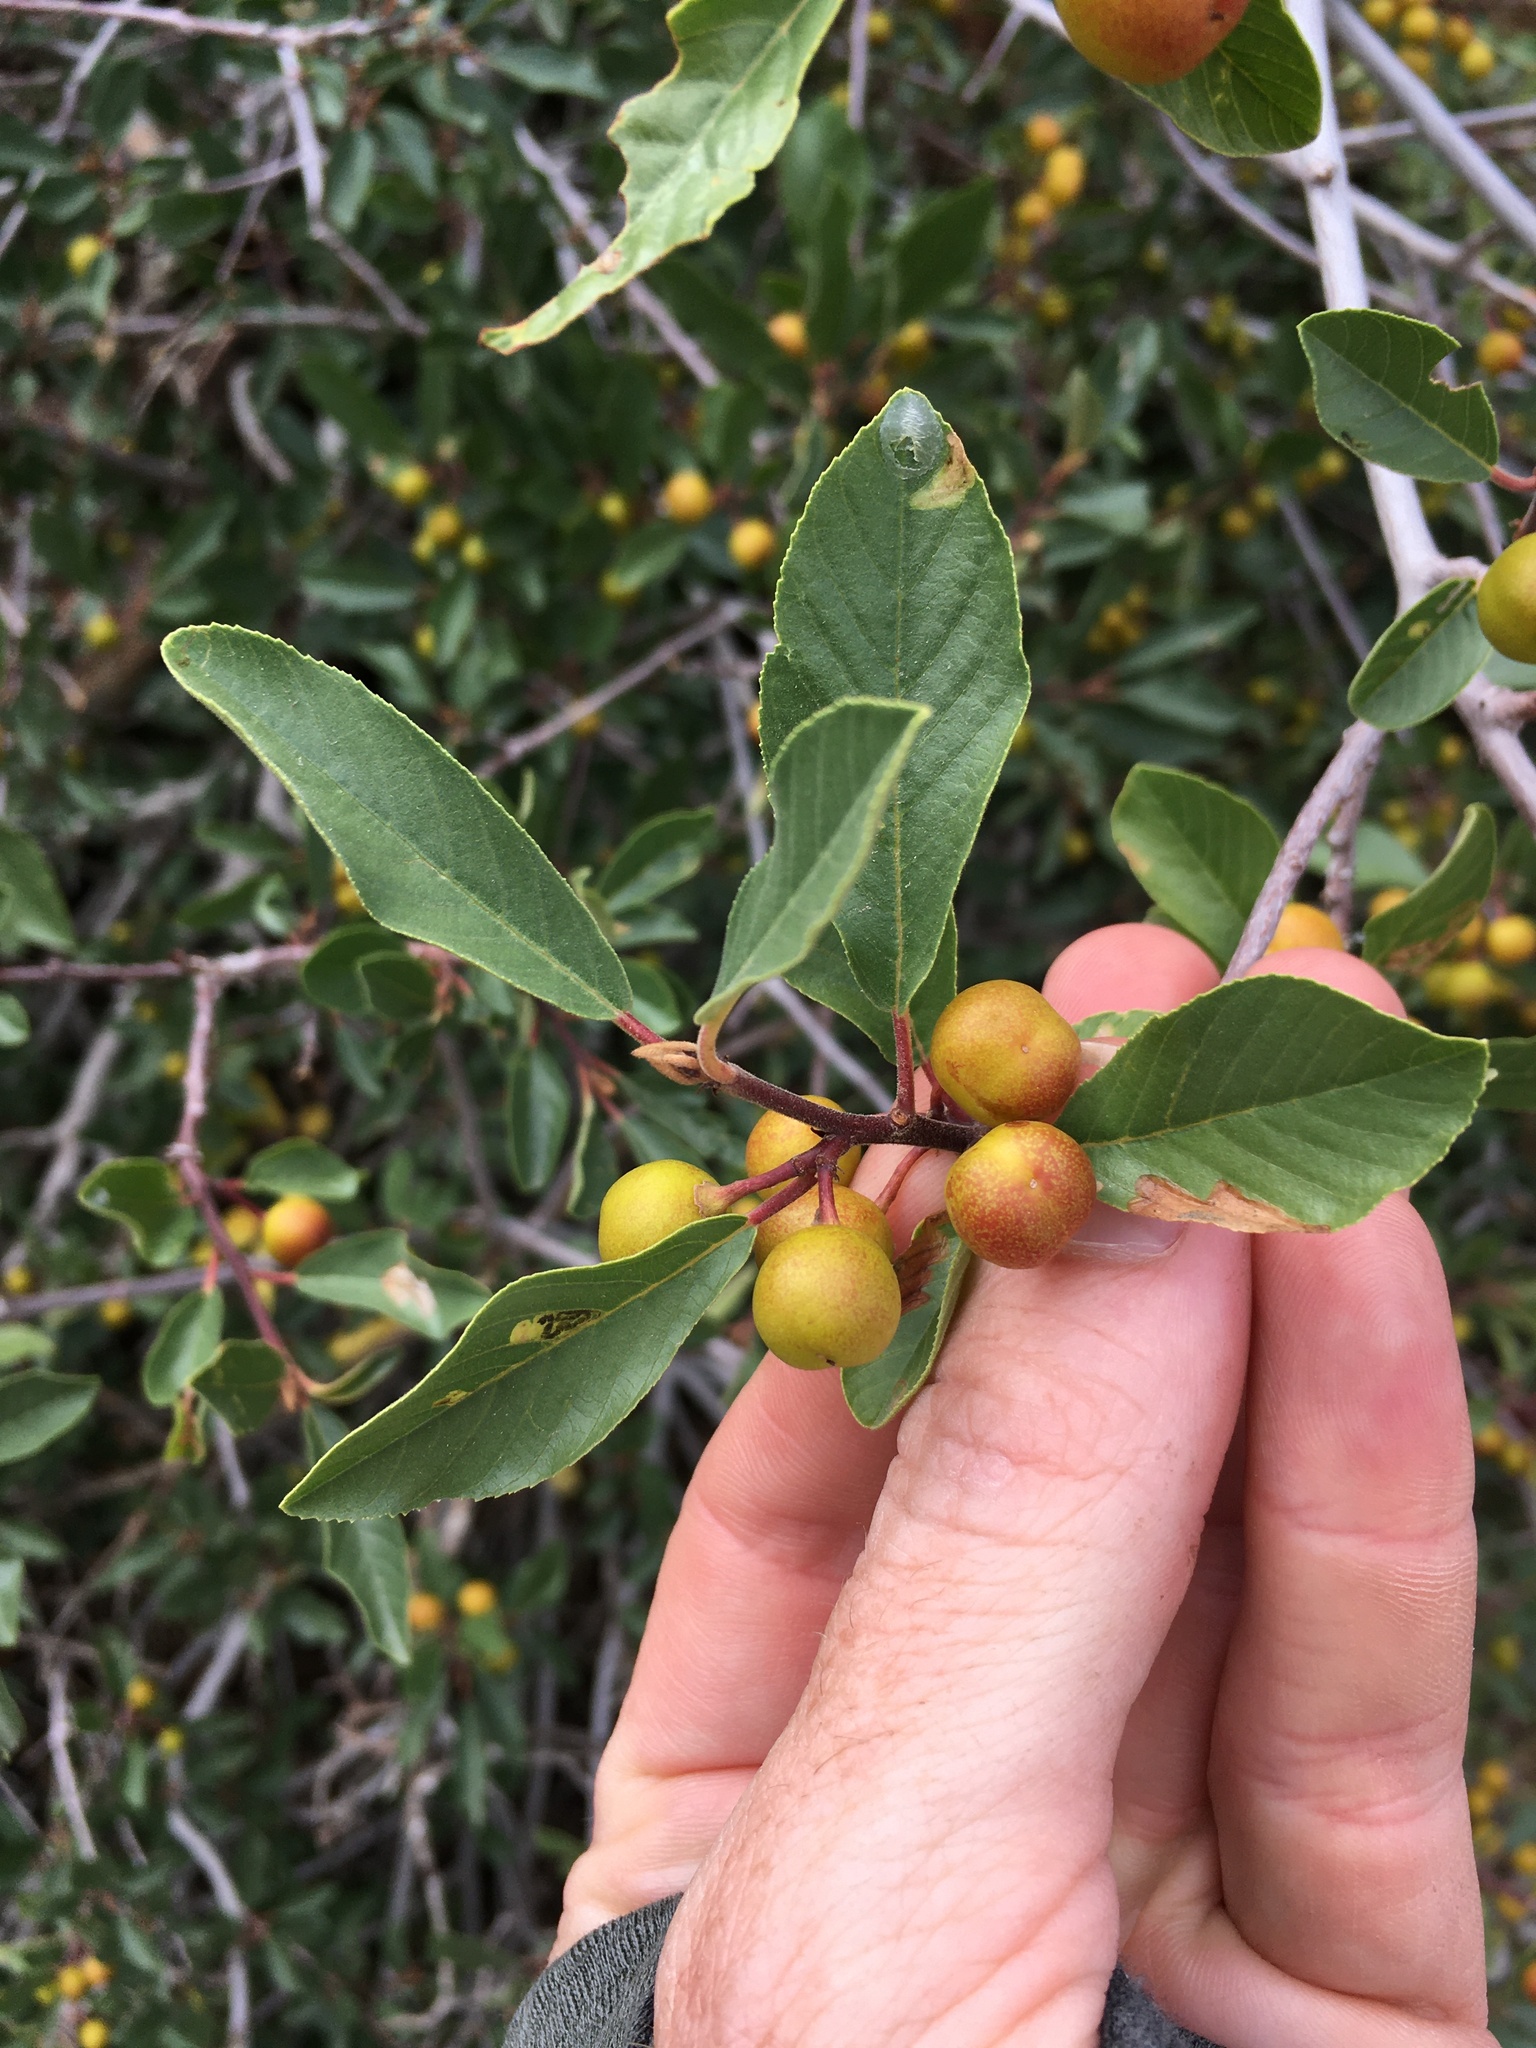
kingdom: Plantae
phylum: Tracheophyta
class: Magnoliopsida
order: Rosales
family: Rhamnaceae
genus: Frangula
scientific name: Frangula californica
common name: California buckthorn
